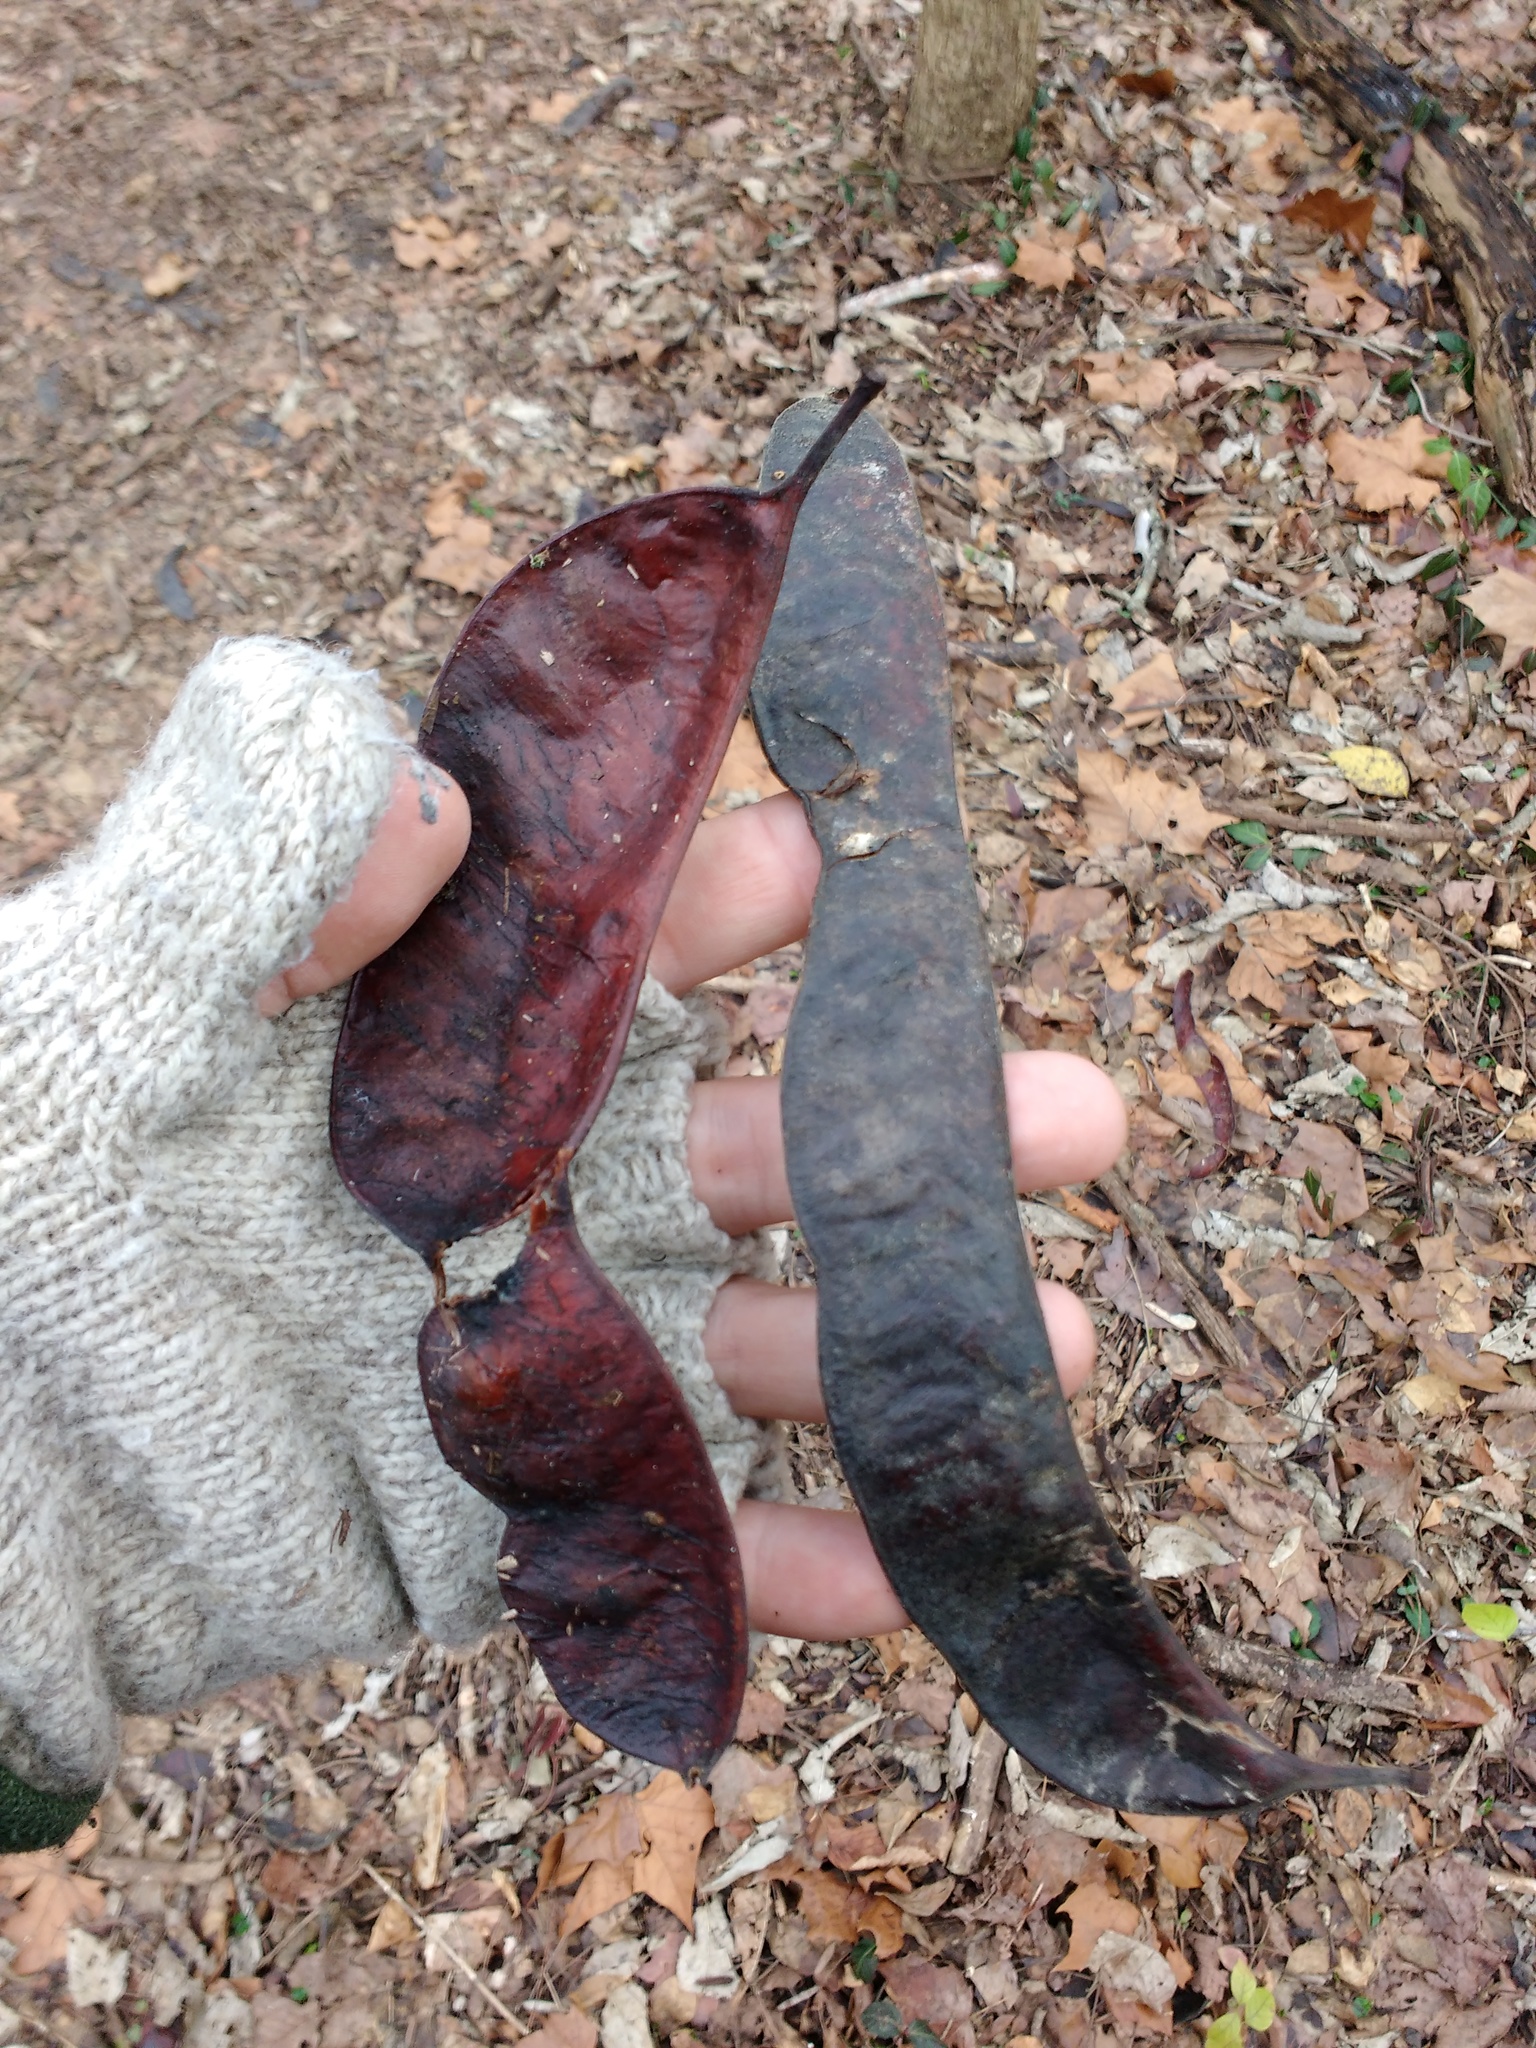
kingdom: Plantae
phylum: Tracheophyta
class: Magnoliopsida
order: Fabales
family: Fabaceae
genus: Gleditsia
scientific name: Gleditsia triacanthos
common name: Common honeylocust
